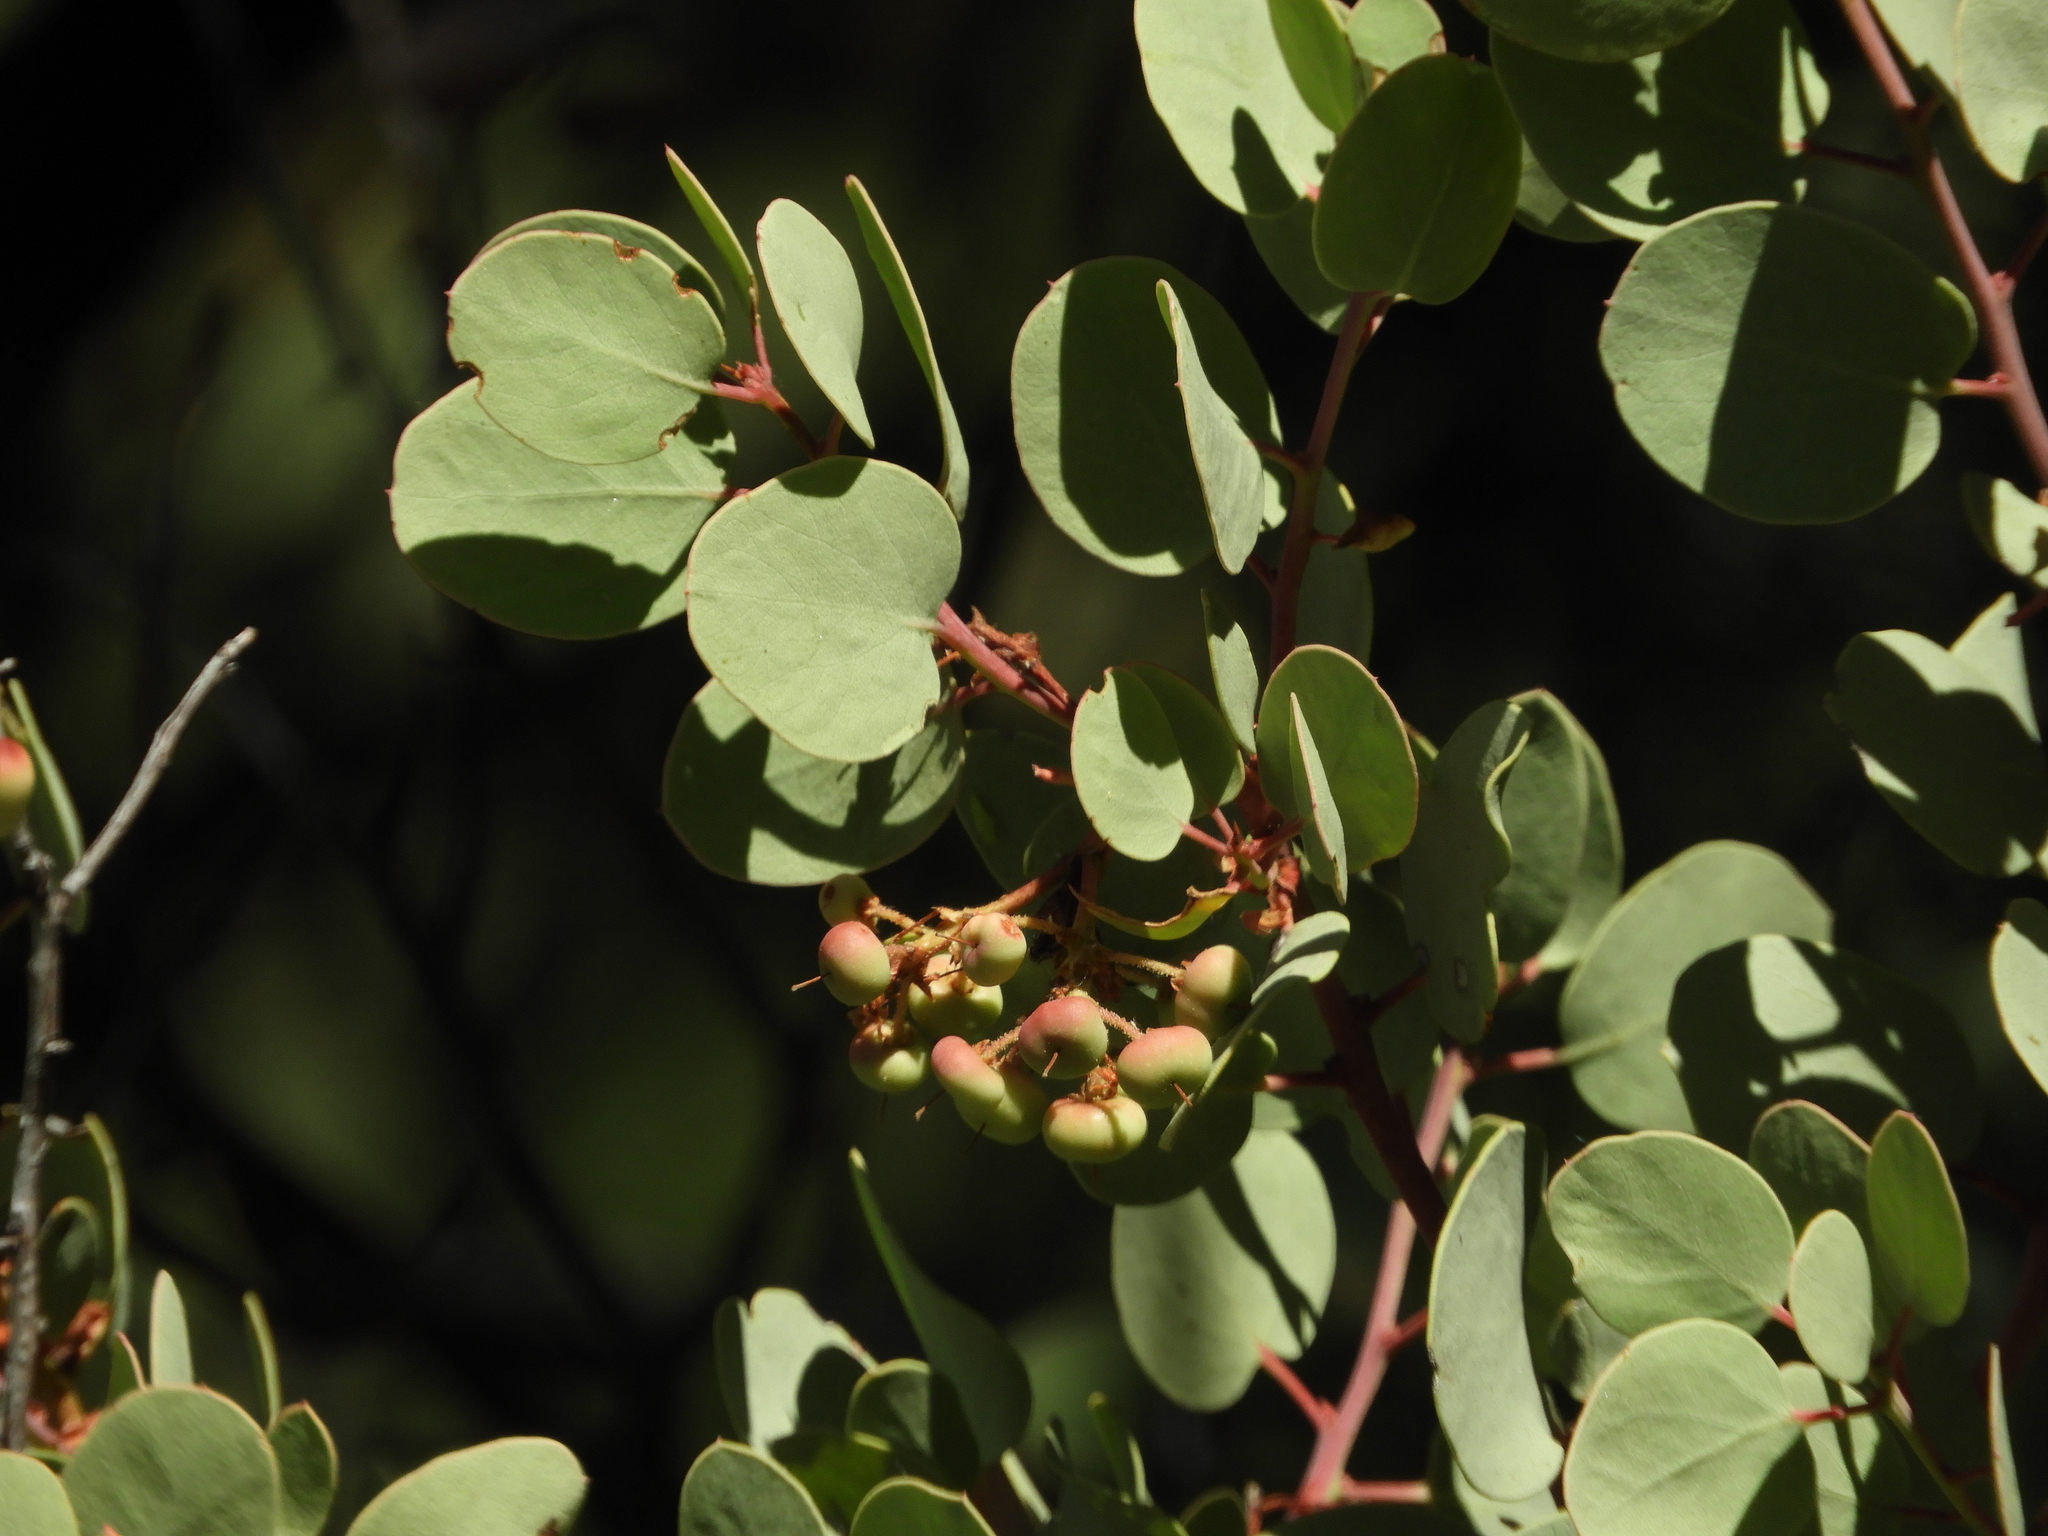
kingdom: Plantae
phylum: Tracheophyta
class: Magnoliopsida
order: Ericales
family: Ericaceae
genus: Arctostaphylos
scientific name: Arctostaphylos viscida
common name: White-leaf manzanita
